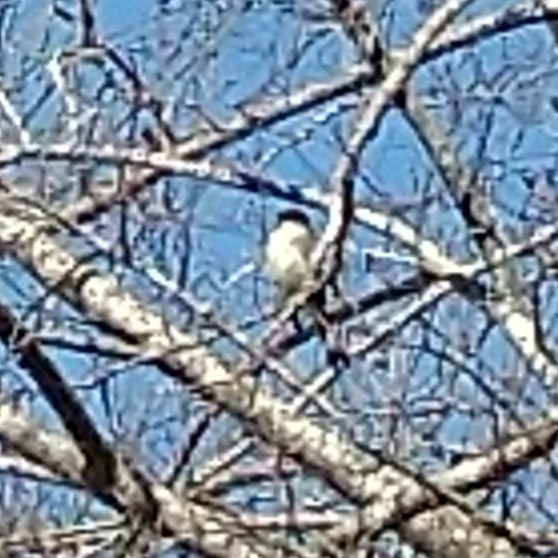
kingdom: Animalia
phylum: Chordata
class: Aves
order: Passeriformes
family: Tyrannidae
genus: Sayornis
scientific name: Sayornis phoebe
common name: Eastern phoebe
